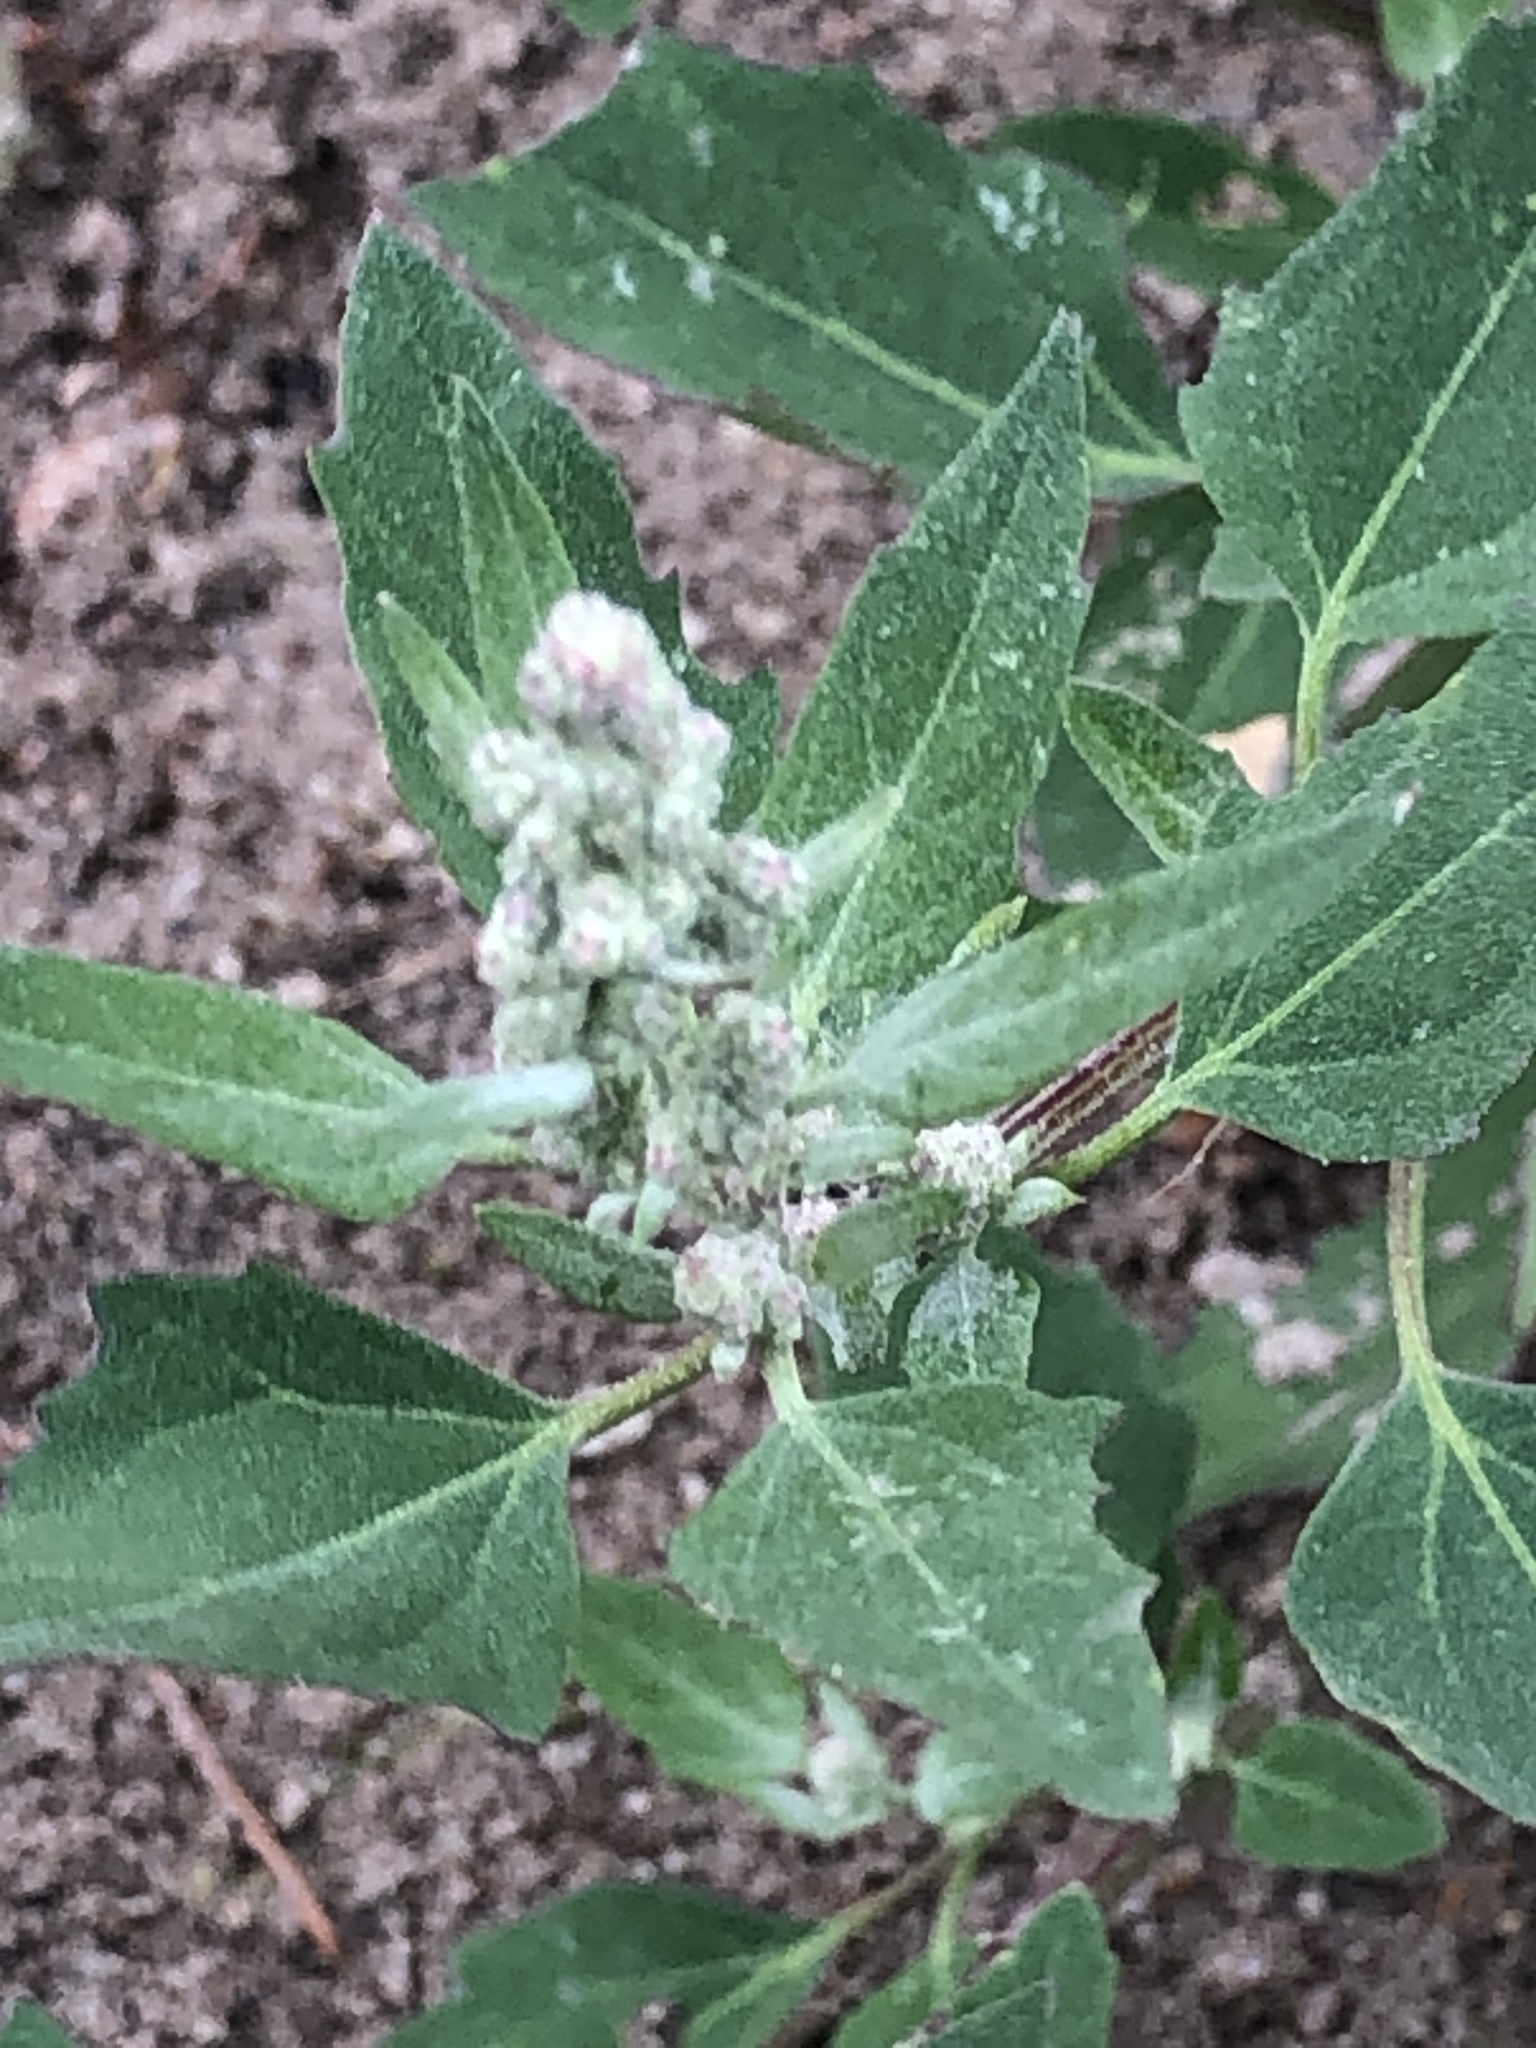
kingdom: Plantae
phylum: Tracheophyta
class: Magnoliopsida
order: Caryophyllales
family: Amaranthaceae
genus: Chenopodium
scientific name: Chenopodium album
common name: Fat-hen
